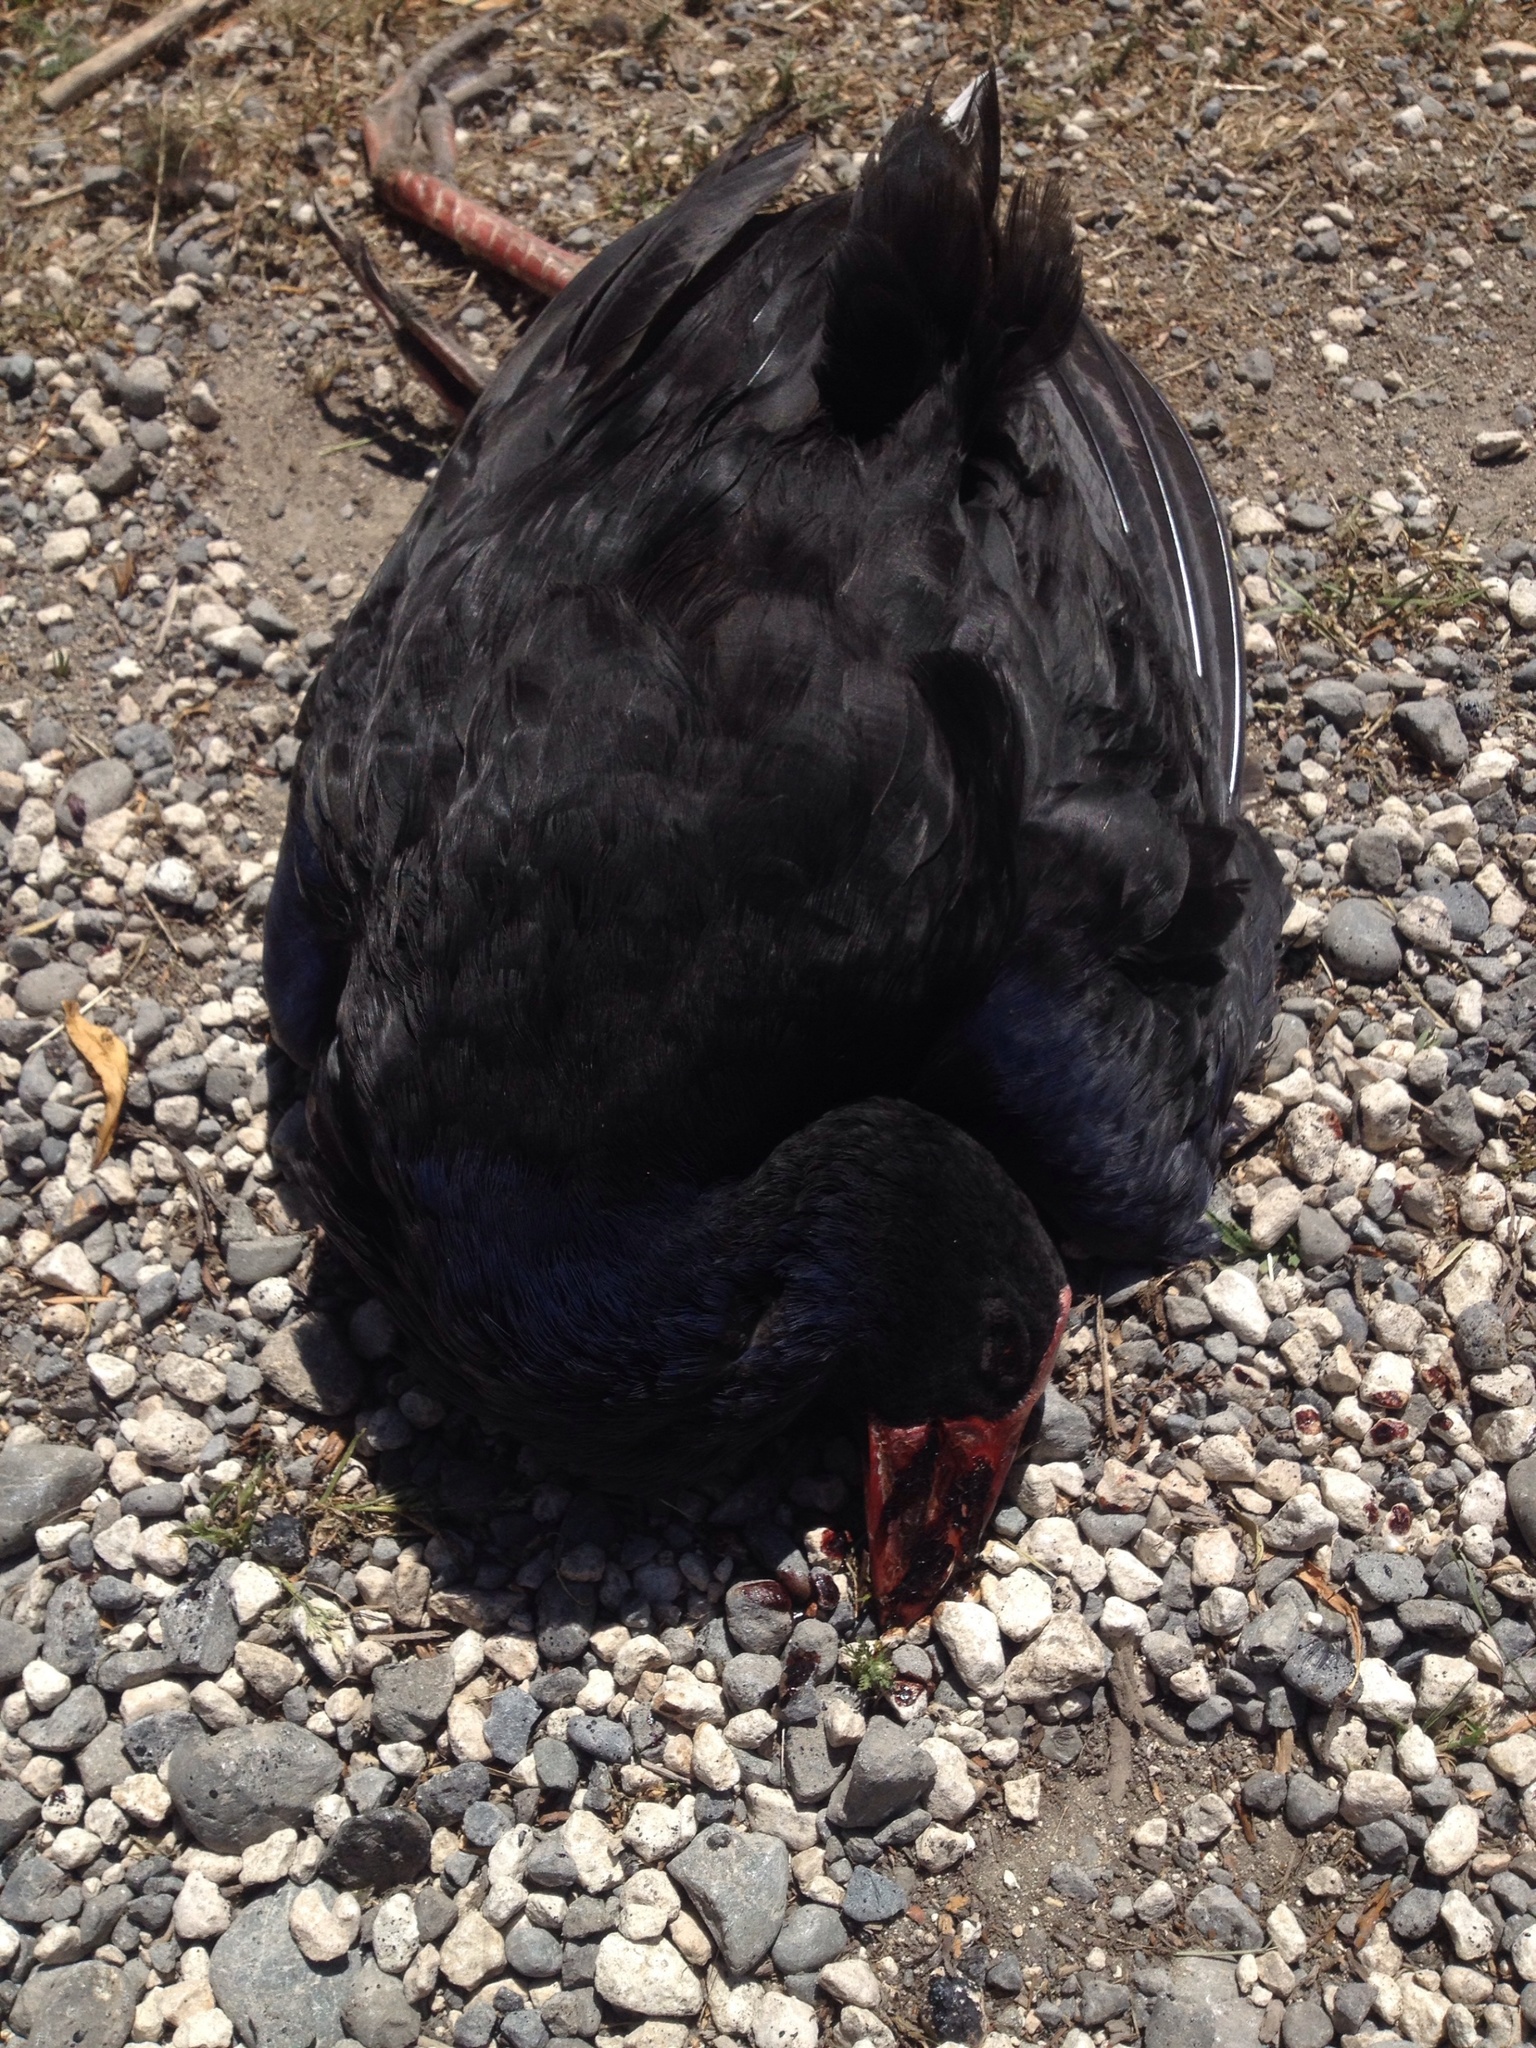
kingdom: Animalia
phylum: Chordata
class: Aves
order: Gruiformes
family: Rallidae
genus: Porphyrio
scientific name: Porphyrio melanotus
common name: Australasian swamphen
